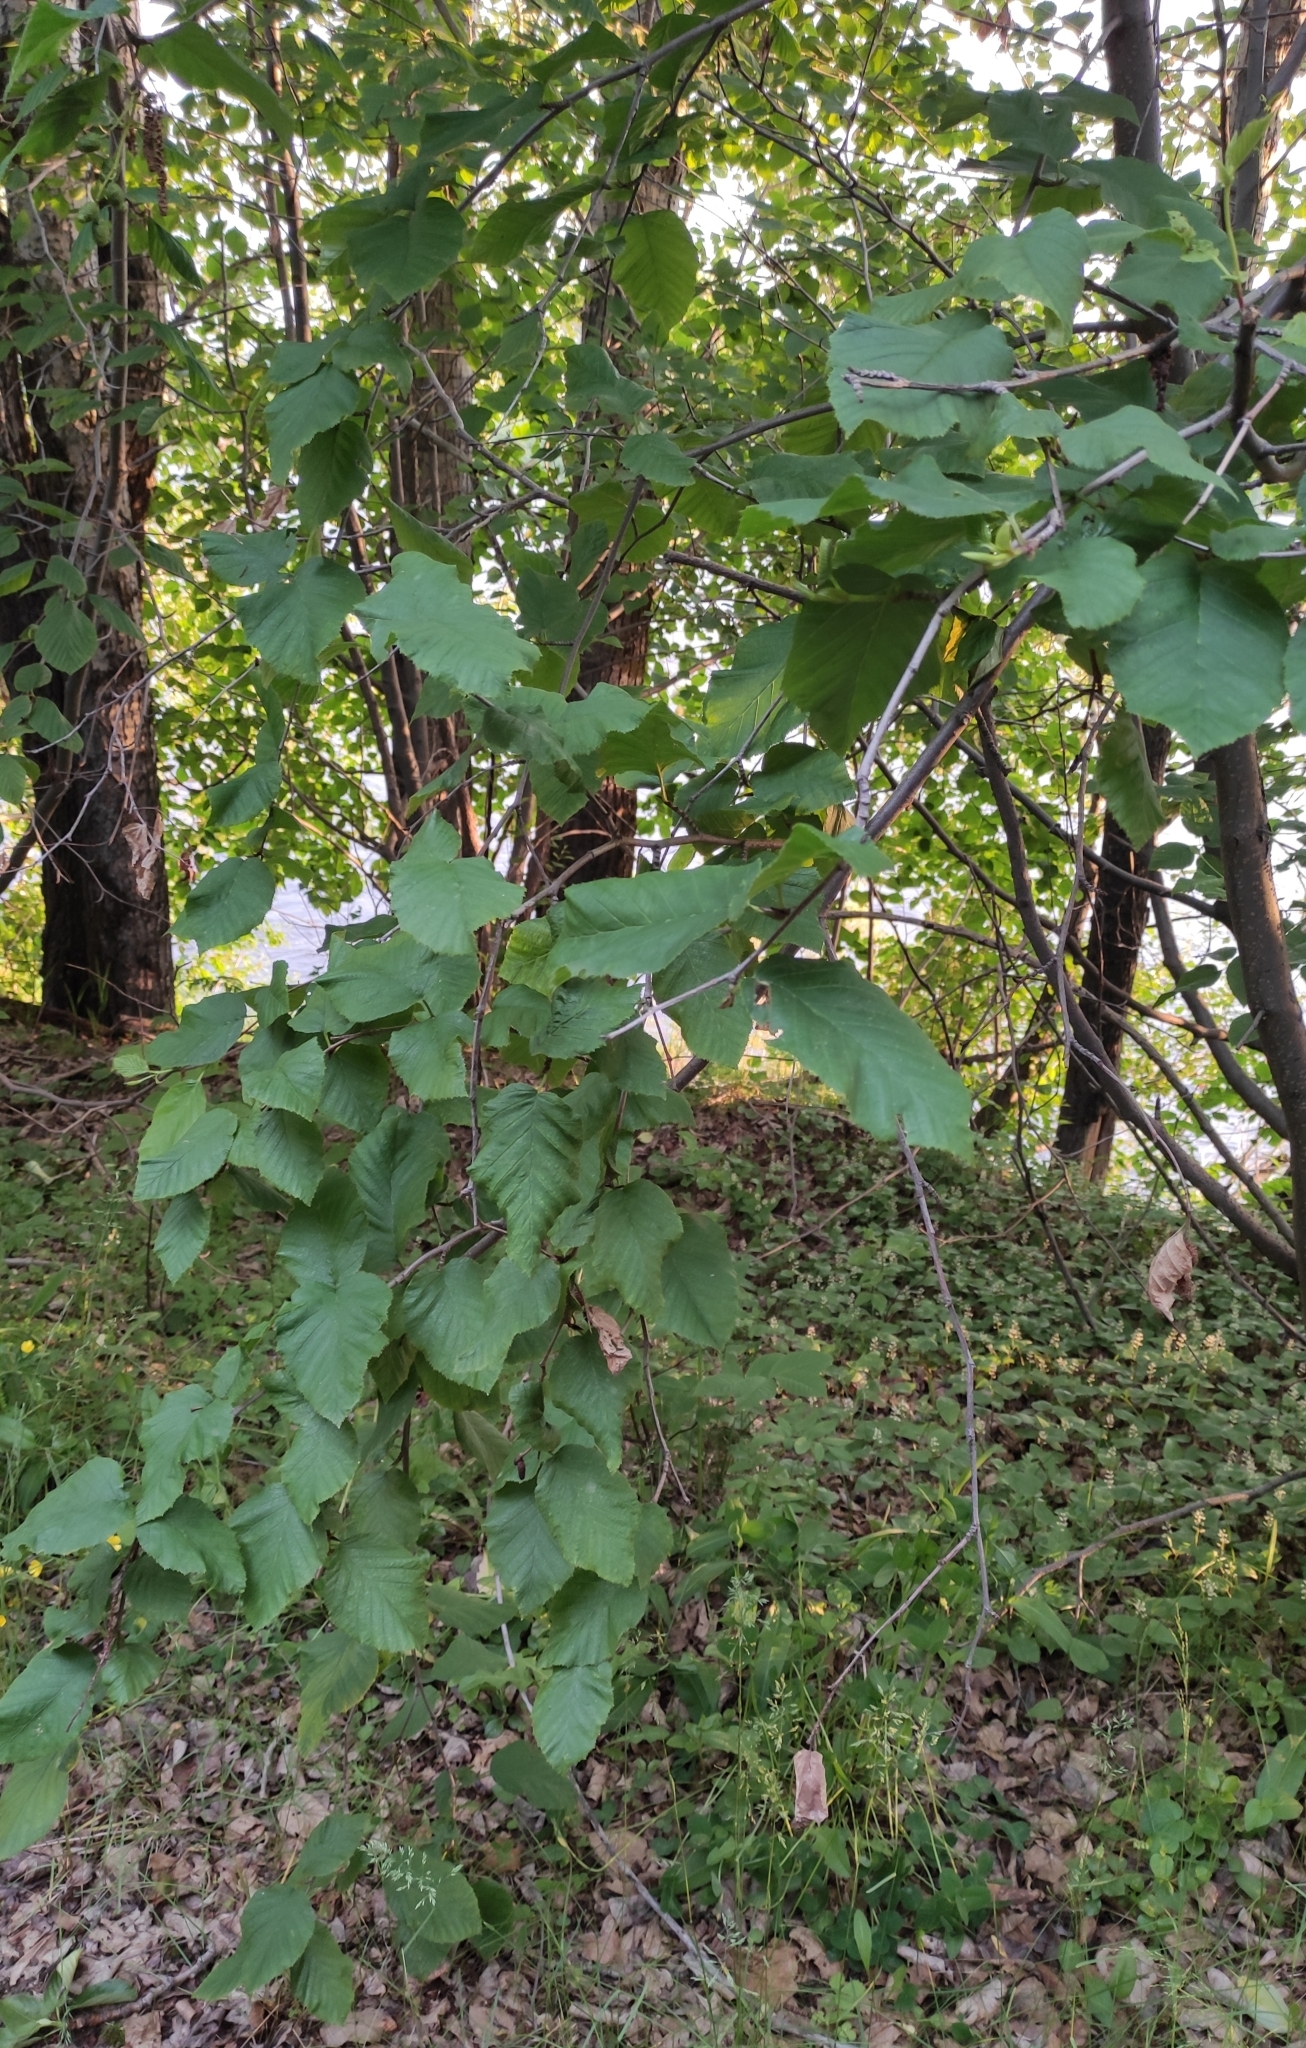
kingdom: Plantae
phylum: Tracheophyta
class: Magnoliopsida
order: Fagales
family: Betulaceae
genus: Alnus
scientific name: Alnus alnobetula
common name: Green alder
